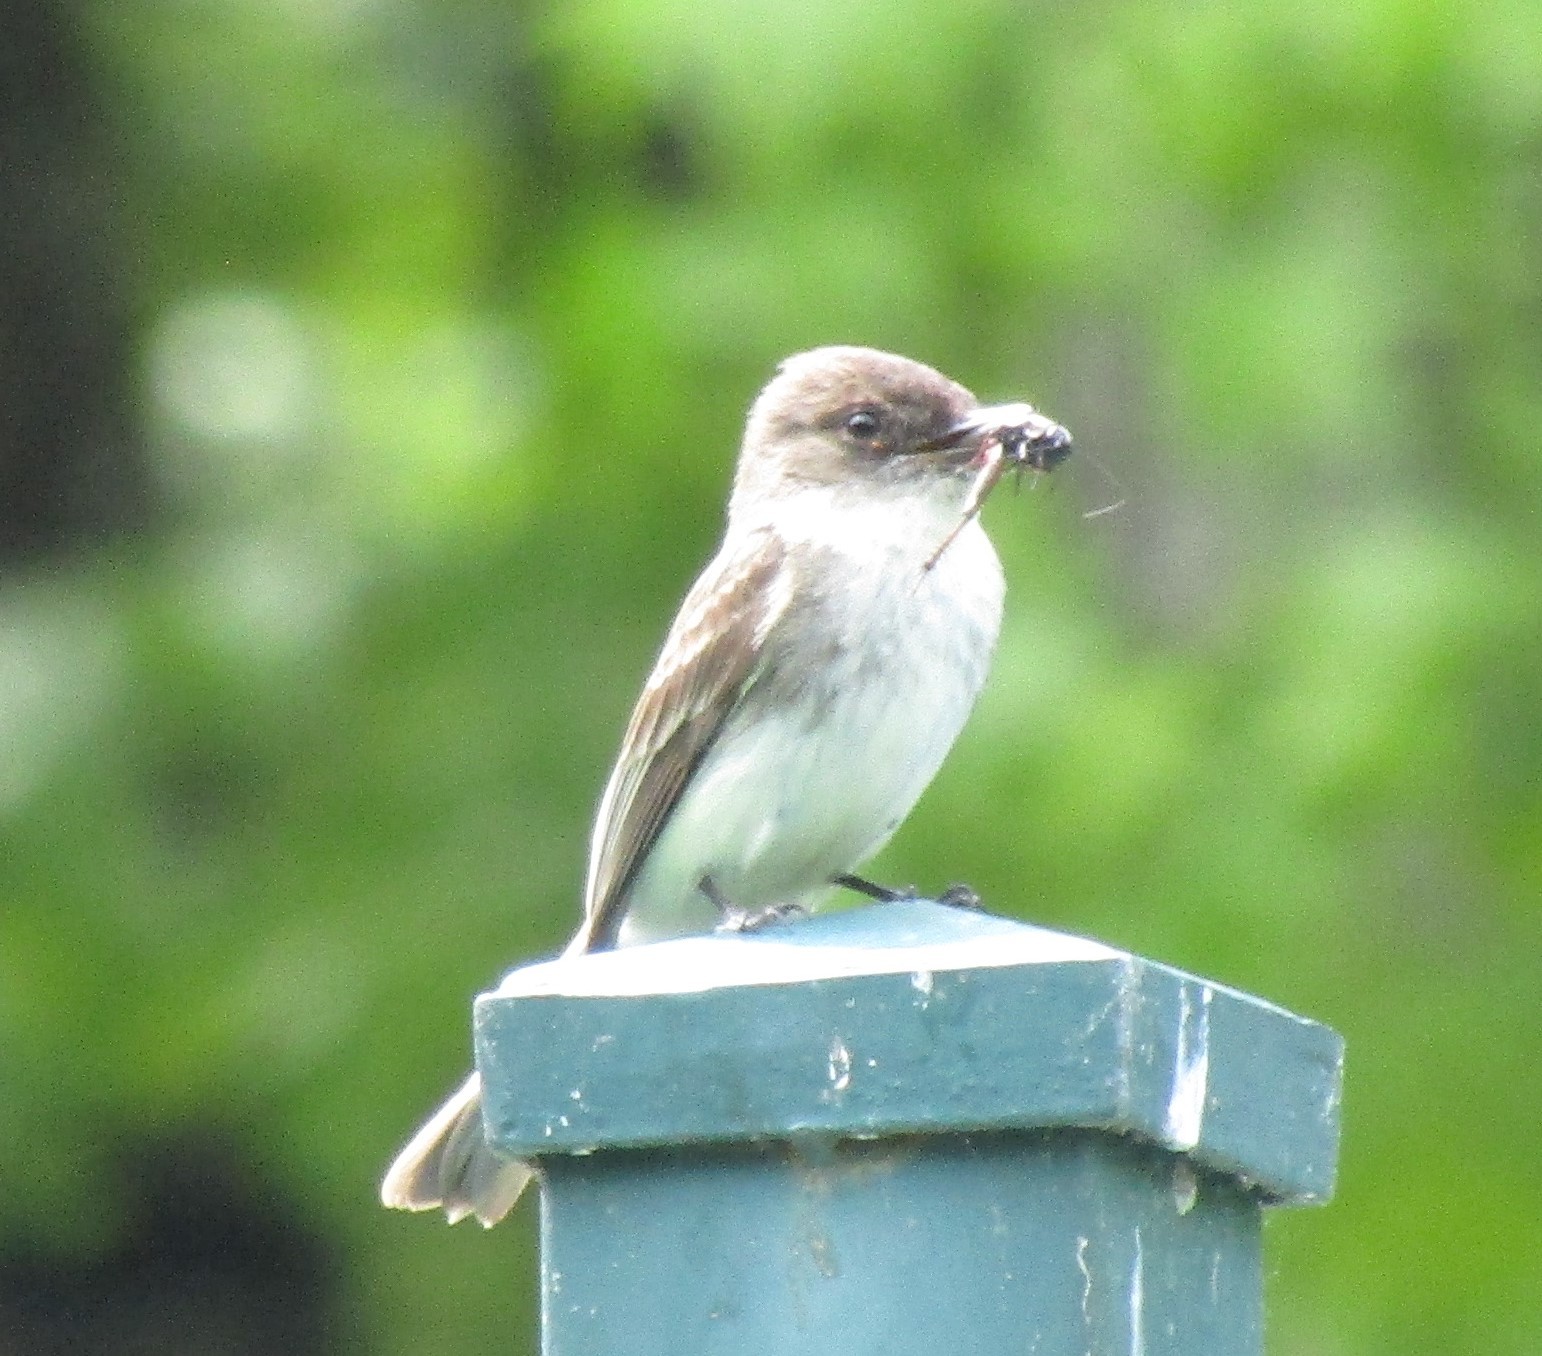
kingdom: Animalia
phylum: Chordata
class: Aves
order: Passeriformes
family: Tyrannidae
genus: Sayornis
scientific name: Sayornis phoebe
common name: Eastern phoebe
